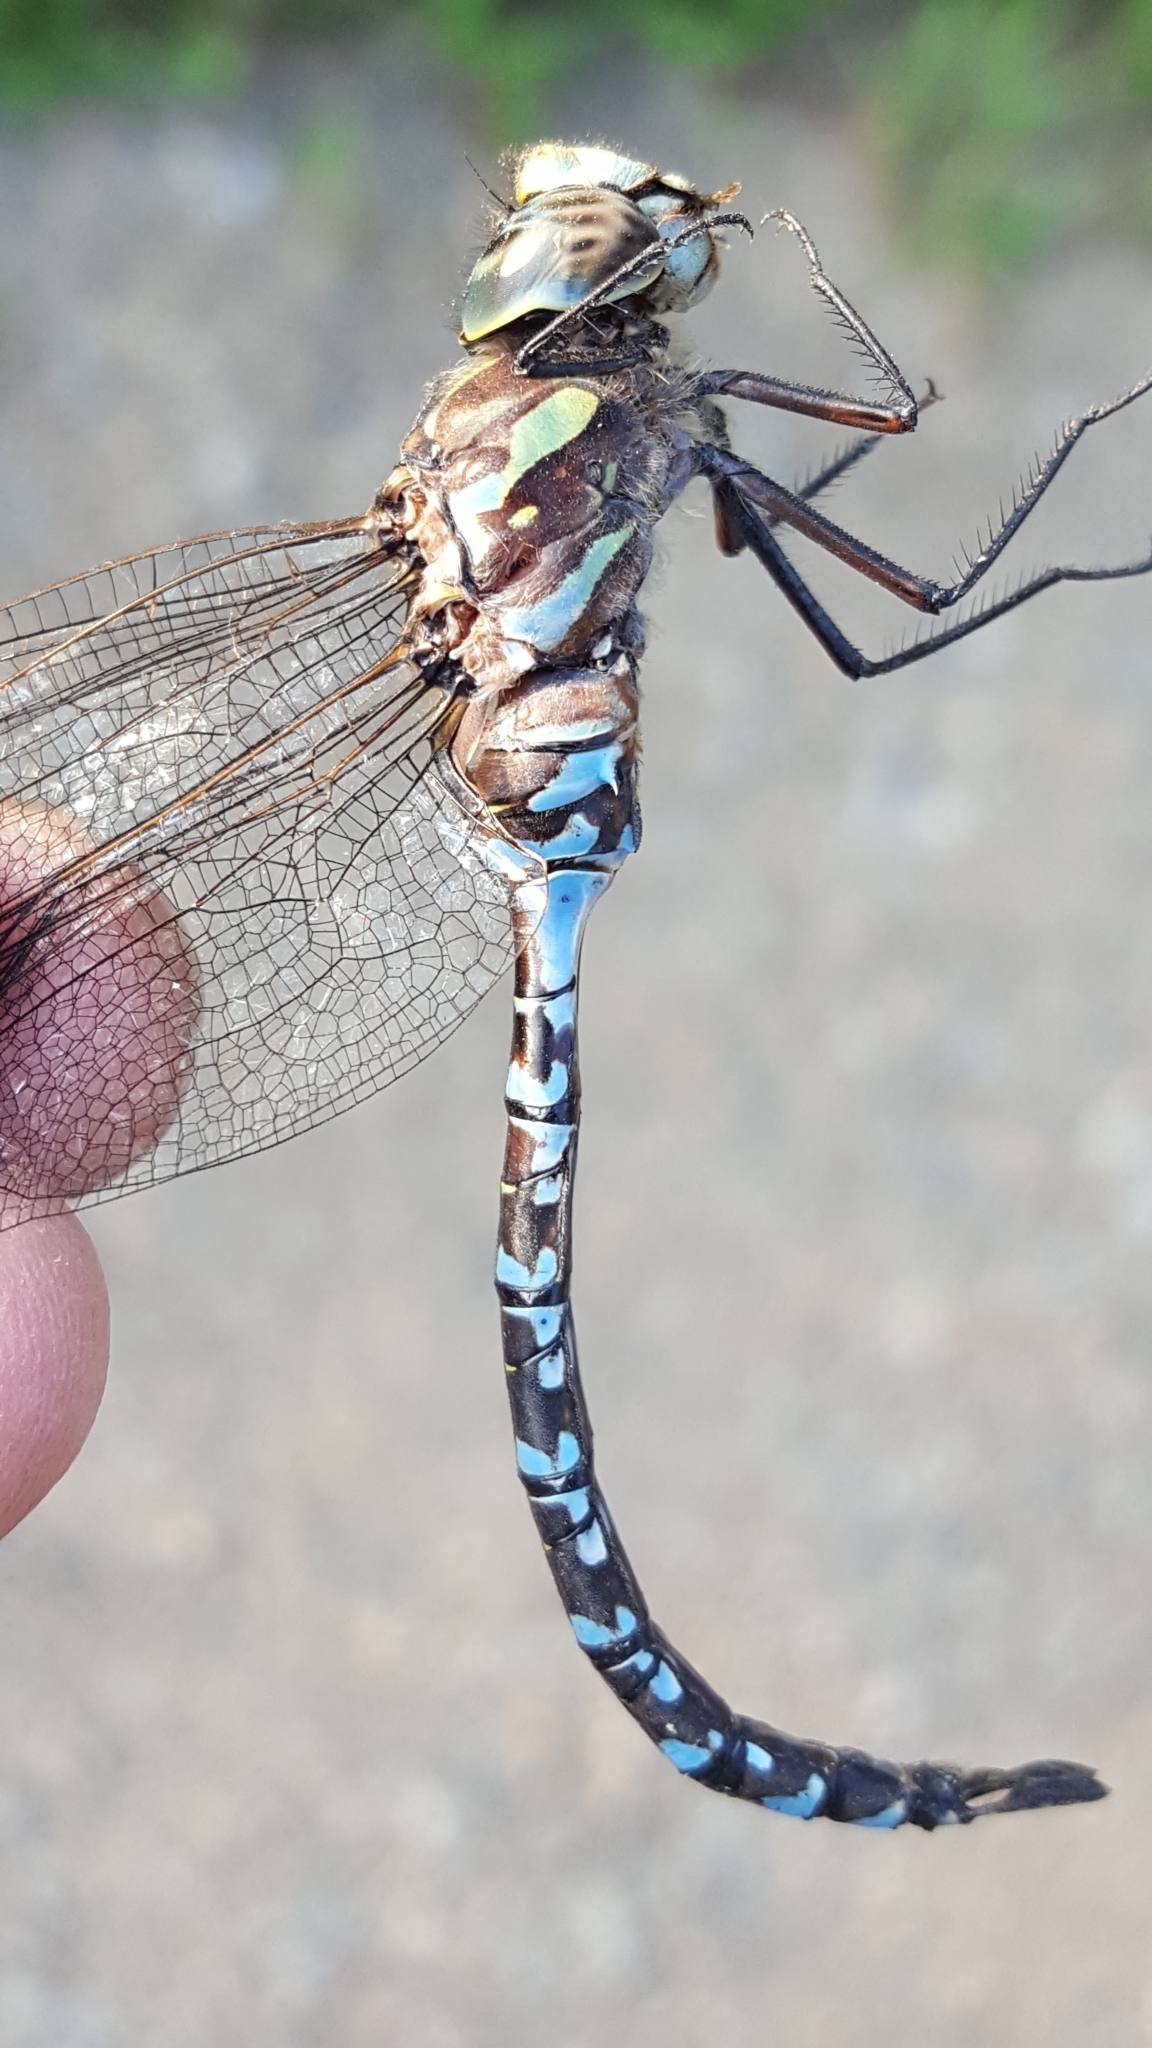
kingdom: Animalia
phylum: Arthropoda
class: Insecta
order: Odonata
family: Aeshnidae
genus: Aeshna
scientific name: Aeshna canadensis
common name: Canada darner
